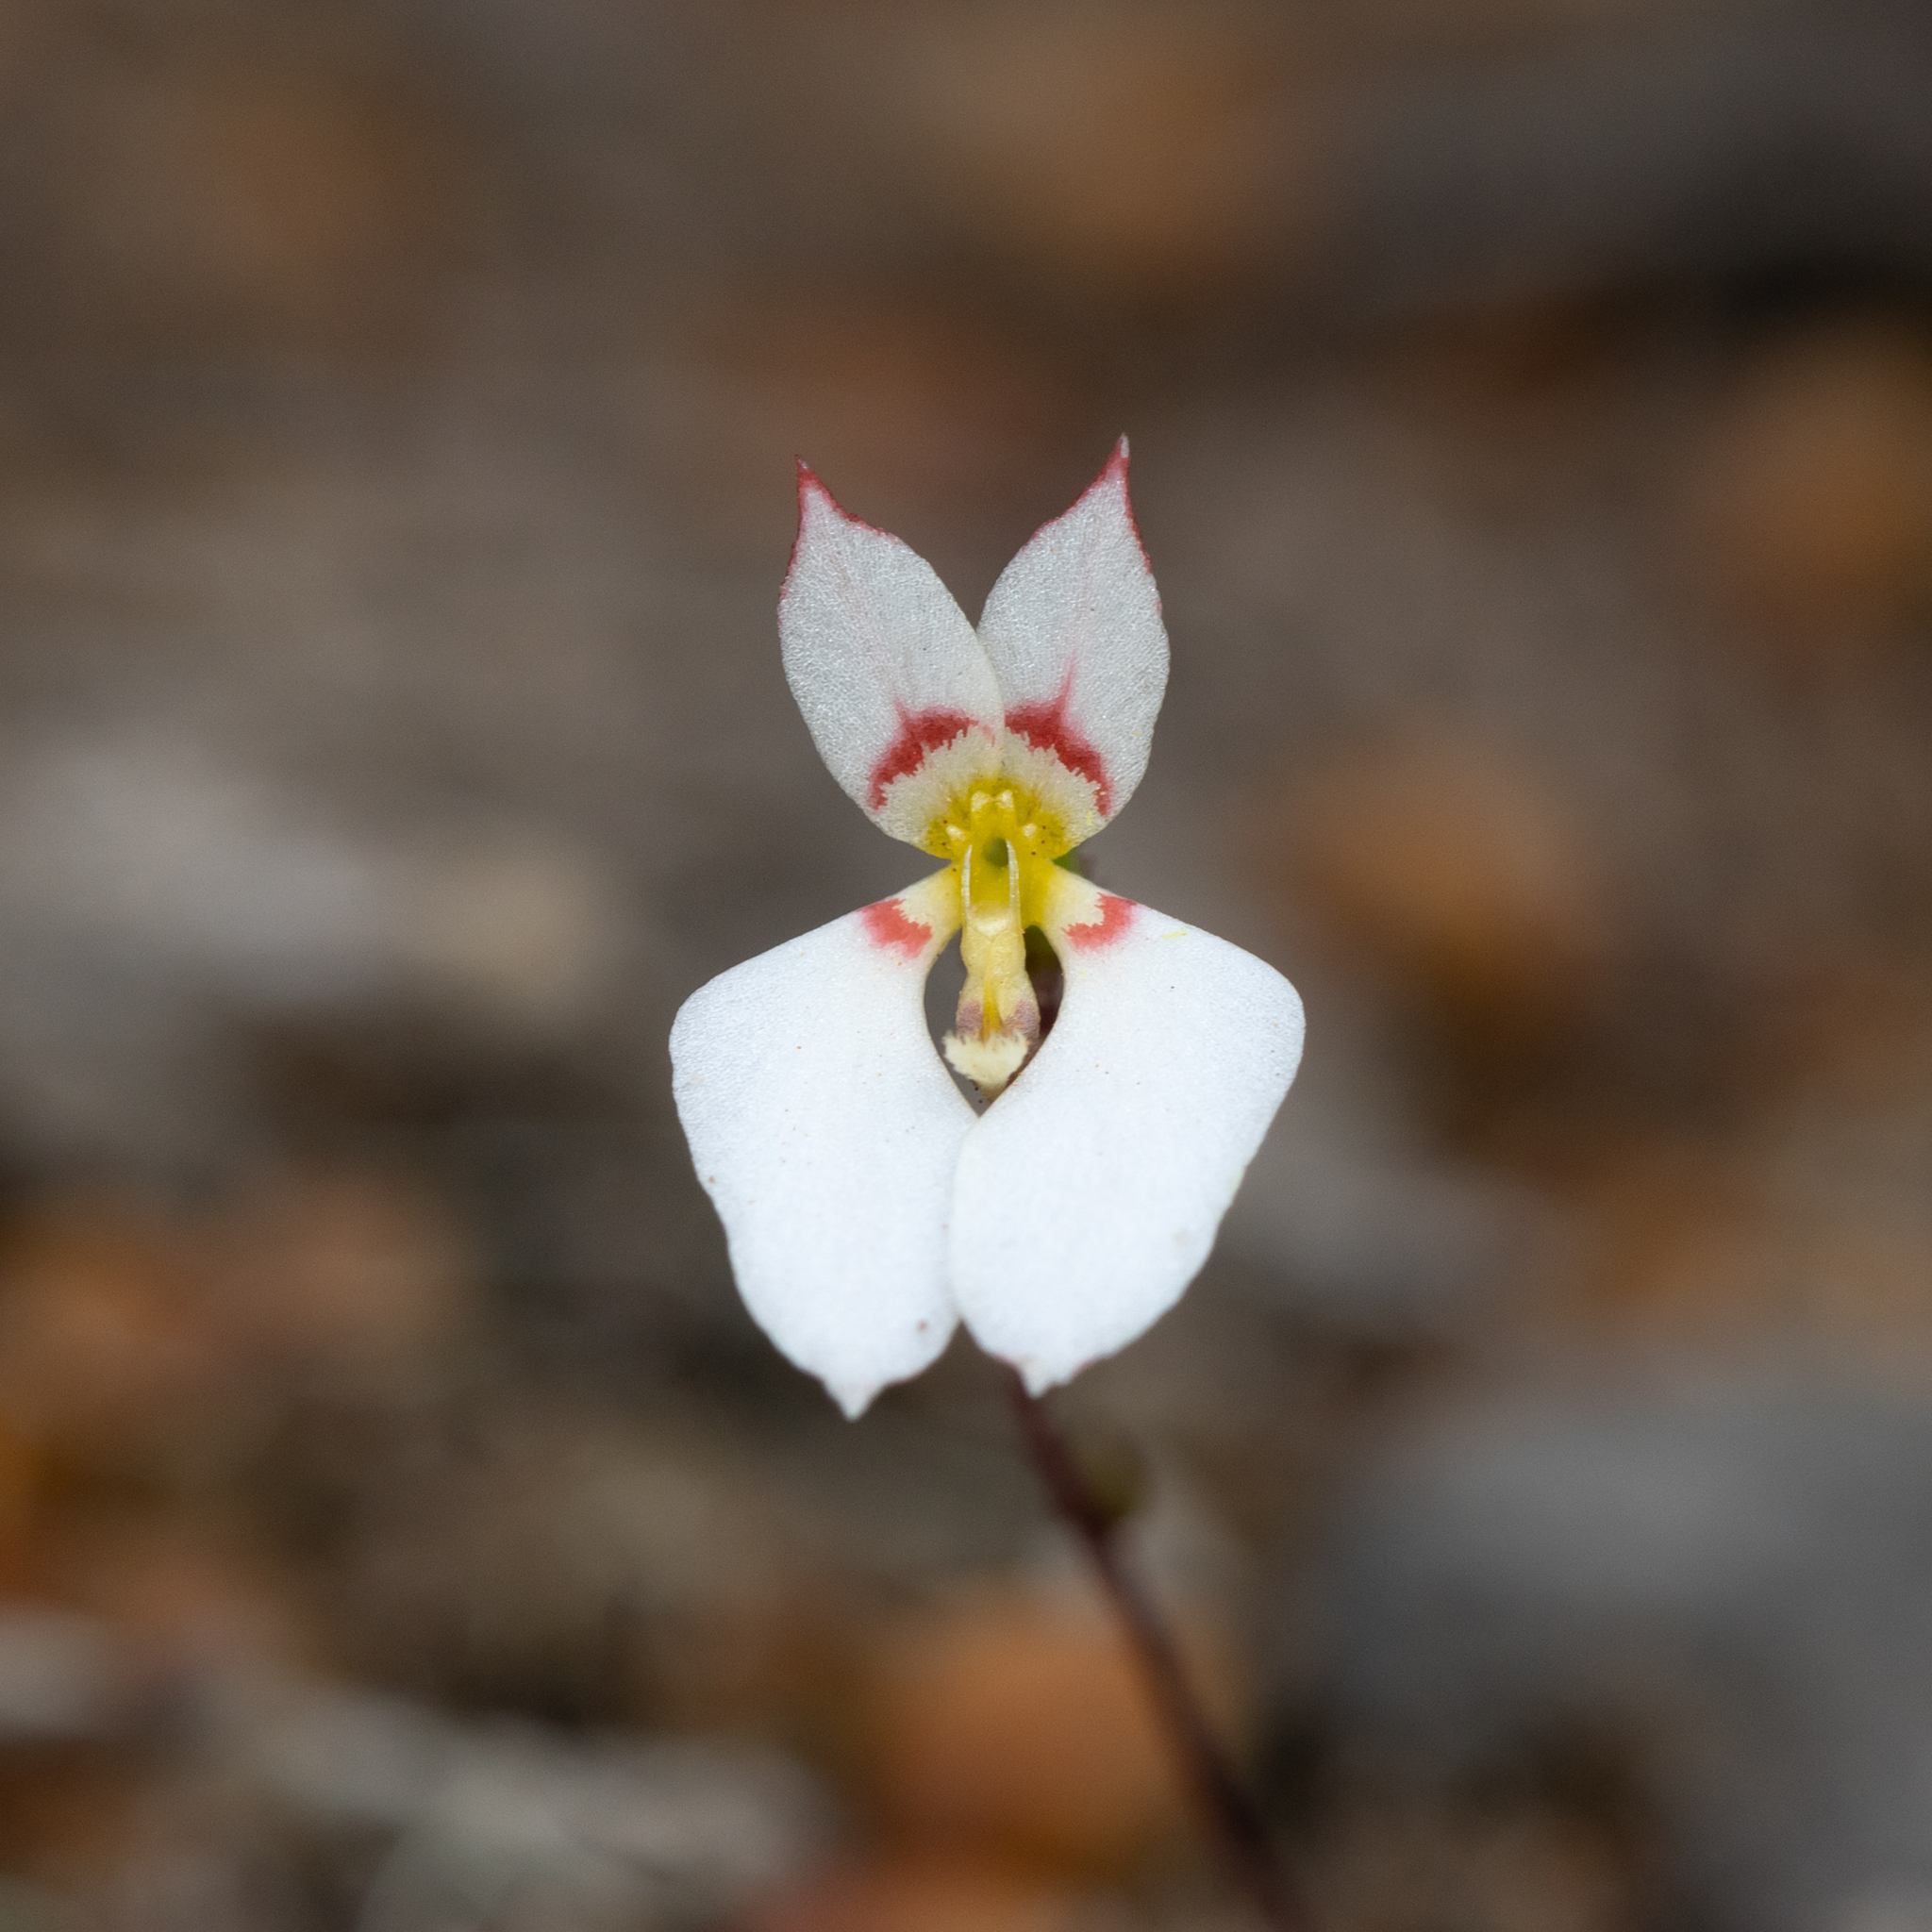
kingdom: Plantae
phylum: Tracheophyta
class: Magnoliopsida
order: Asterales
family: Stylidiaceae
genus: Levenhookia
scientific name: Levenhookia pauciflora
